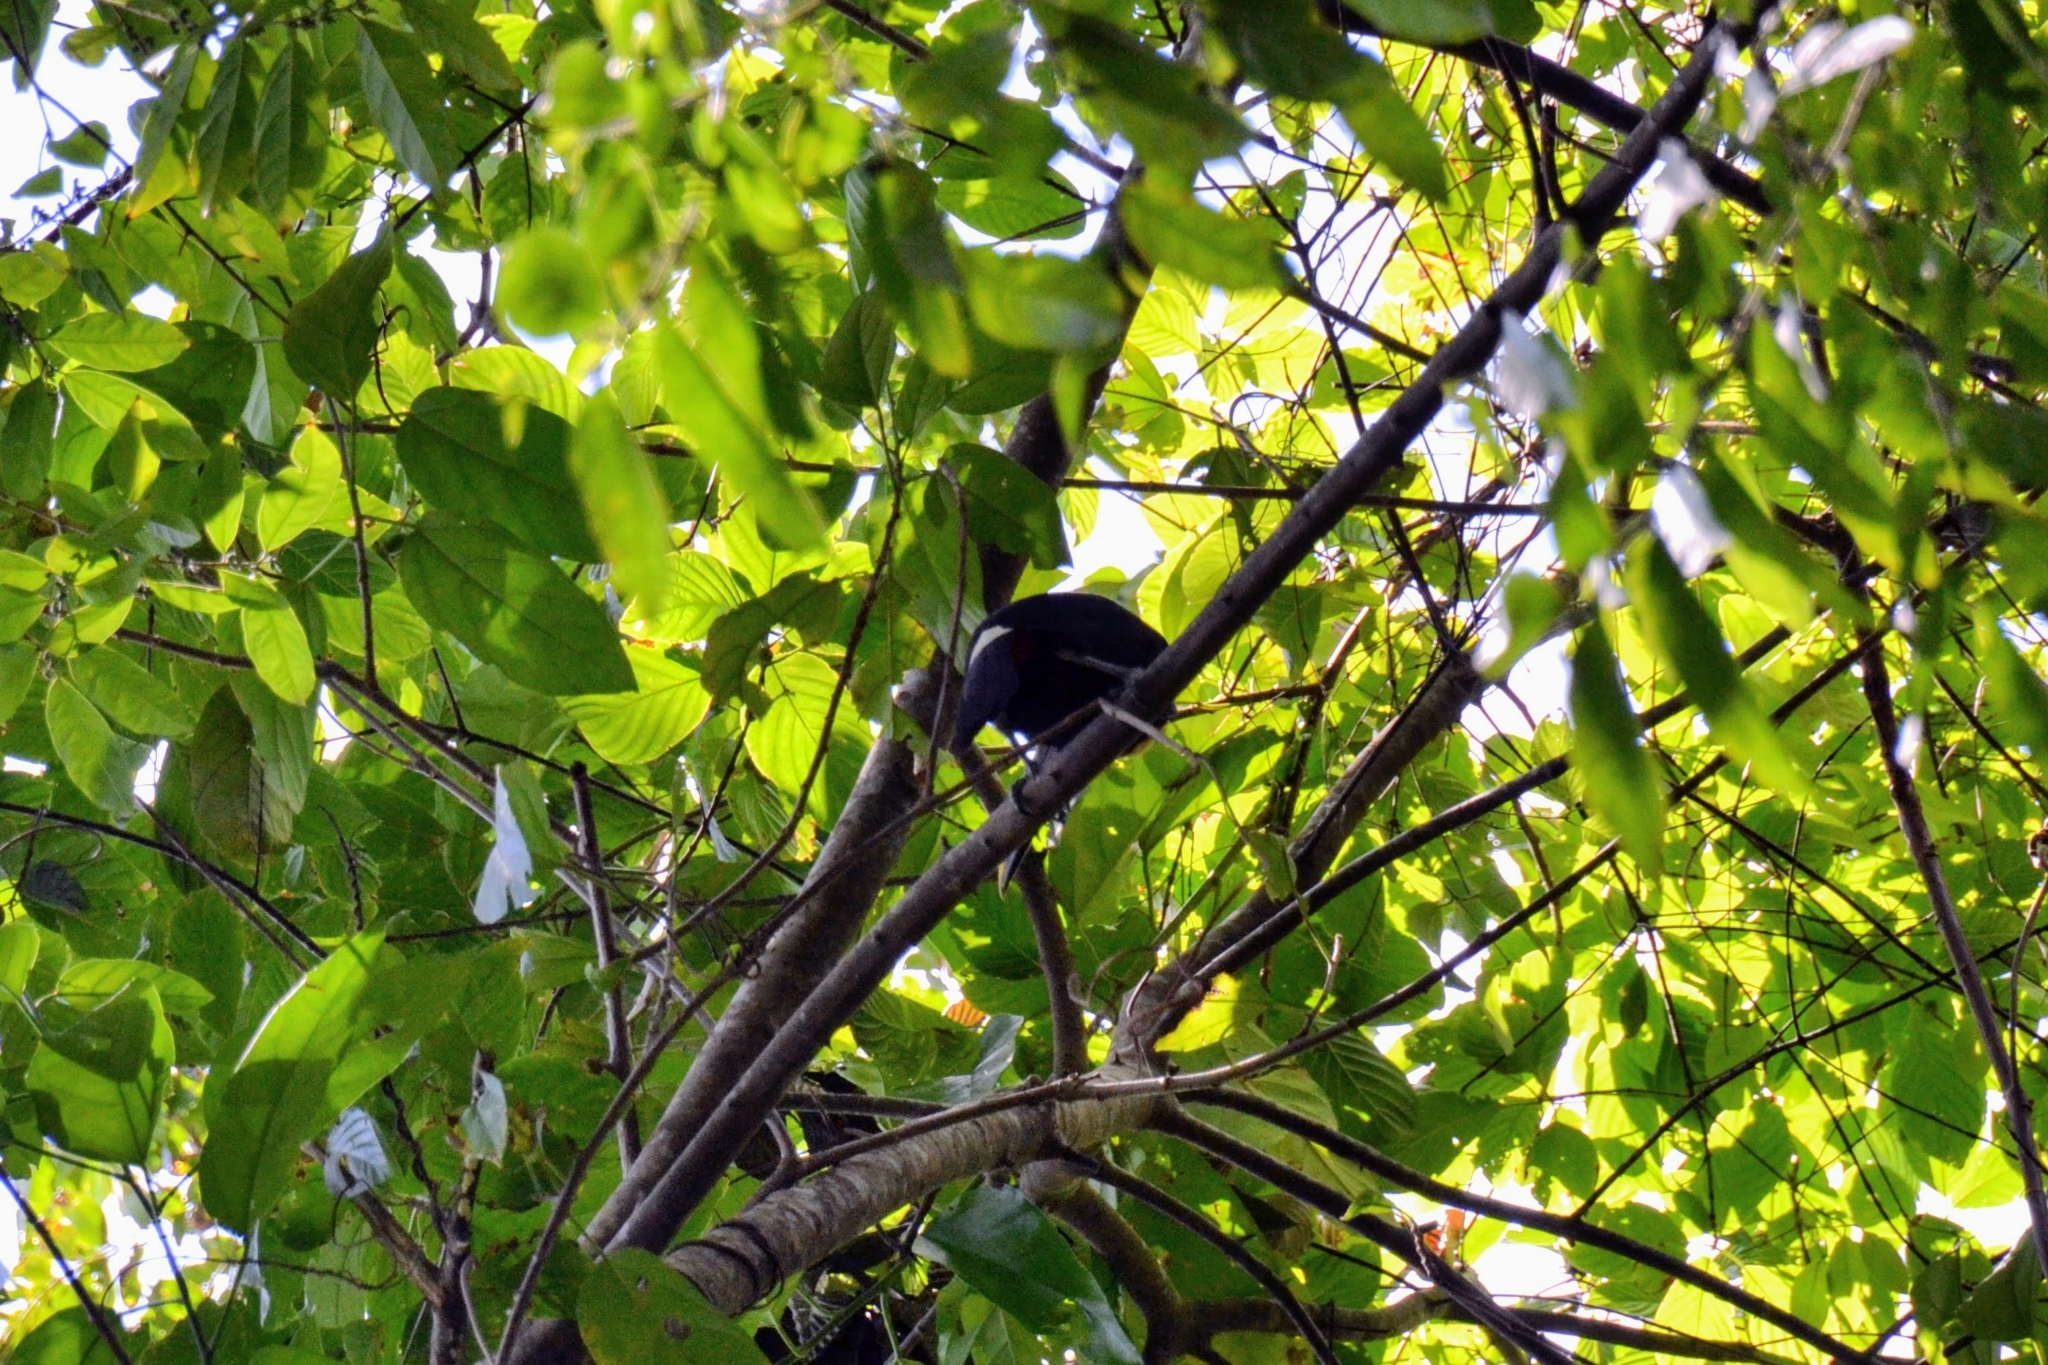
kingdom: Animalia
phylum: Chordata
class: Aves
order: Piciformes
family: Ramphastidae
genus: Ramphastos
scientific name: Ramphastos ambiguus
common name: Yellow-throated toucan
